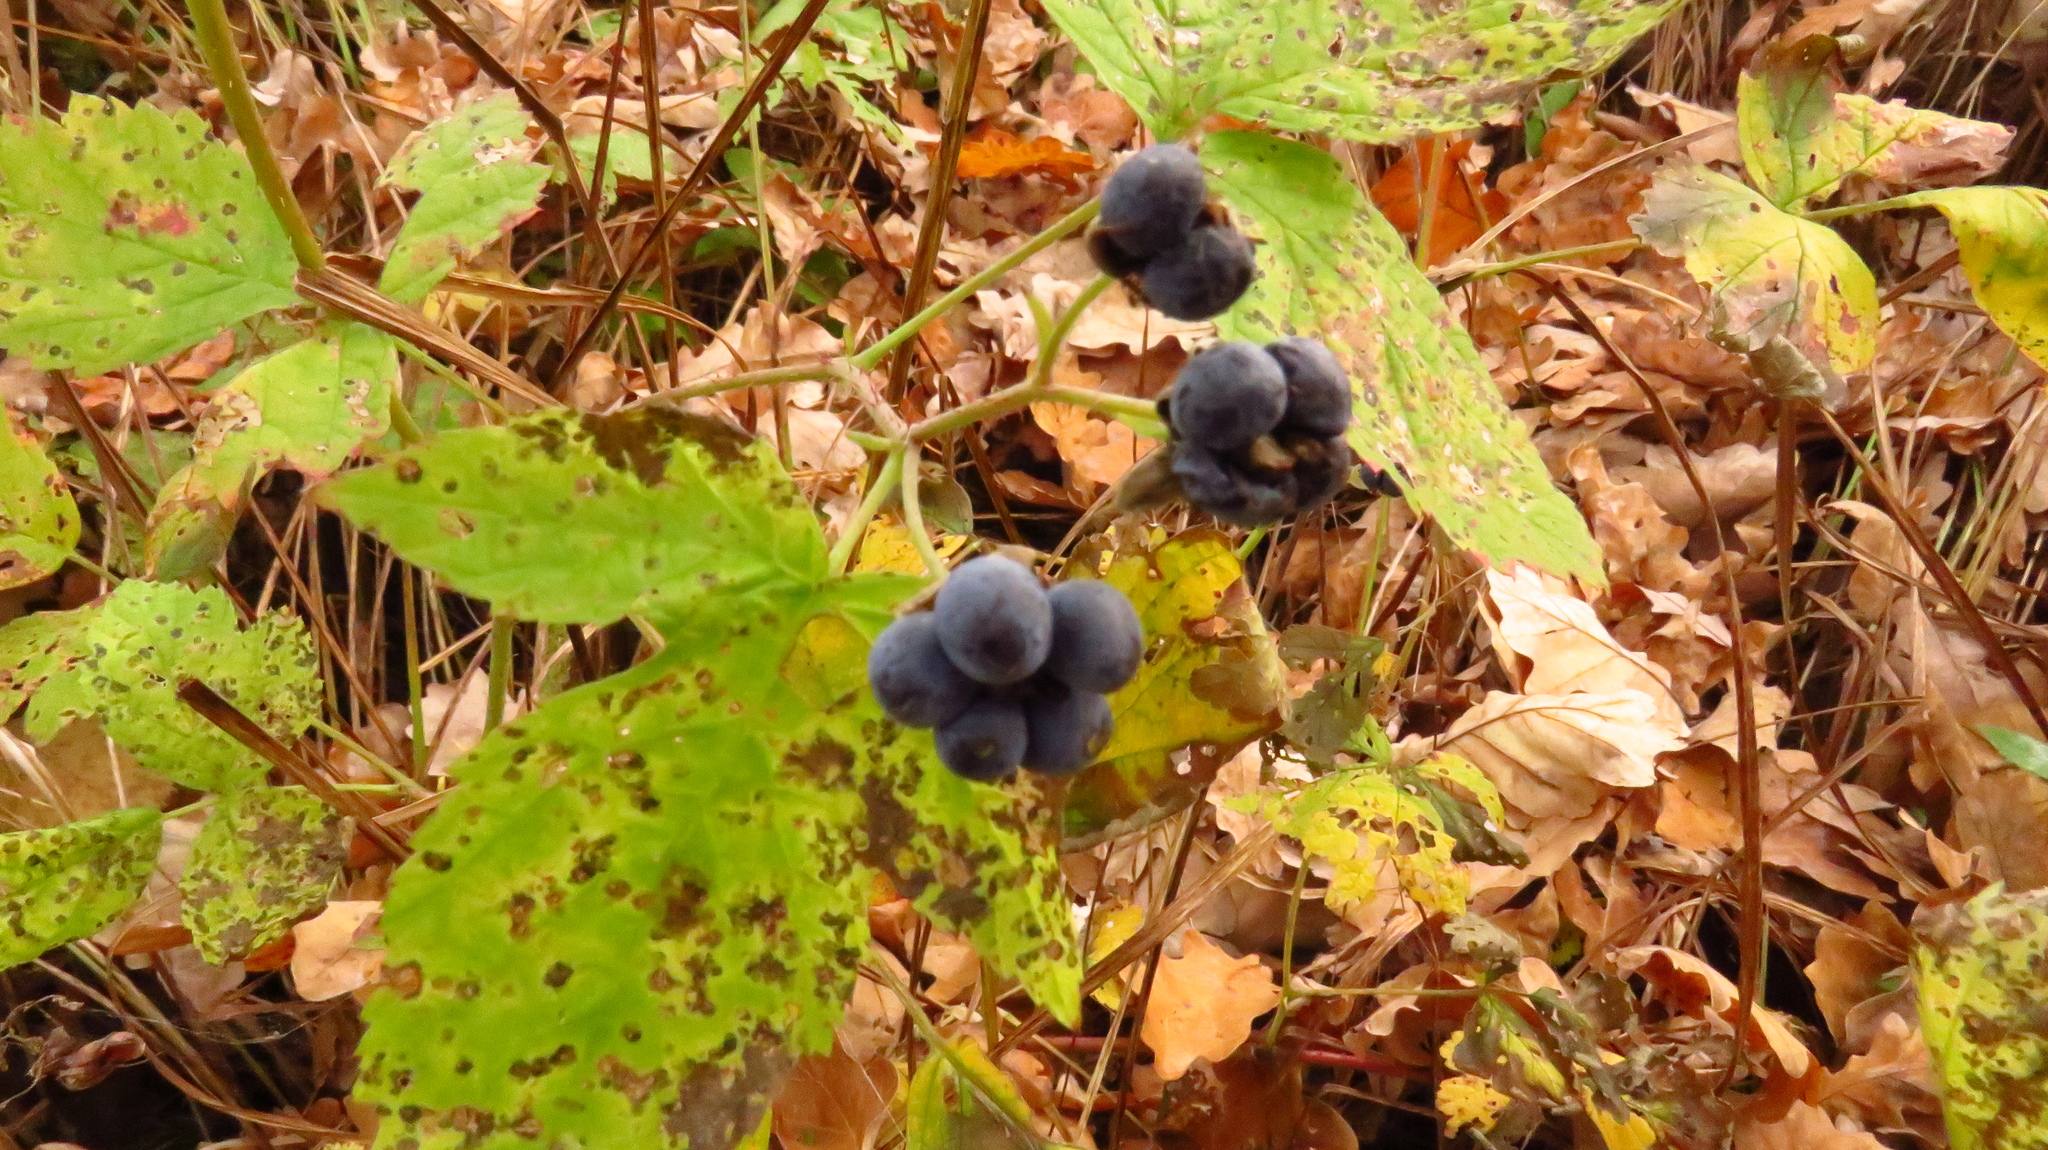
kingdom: Plantae
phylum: Tracheophyta
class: Magnoliopsida
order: Rosales
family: Rosaceae
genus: Rubus
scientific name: Rubus caesius
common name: Dewberry
